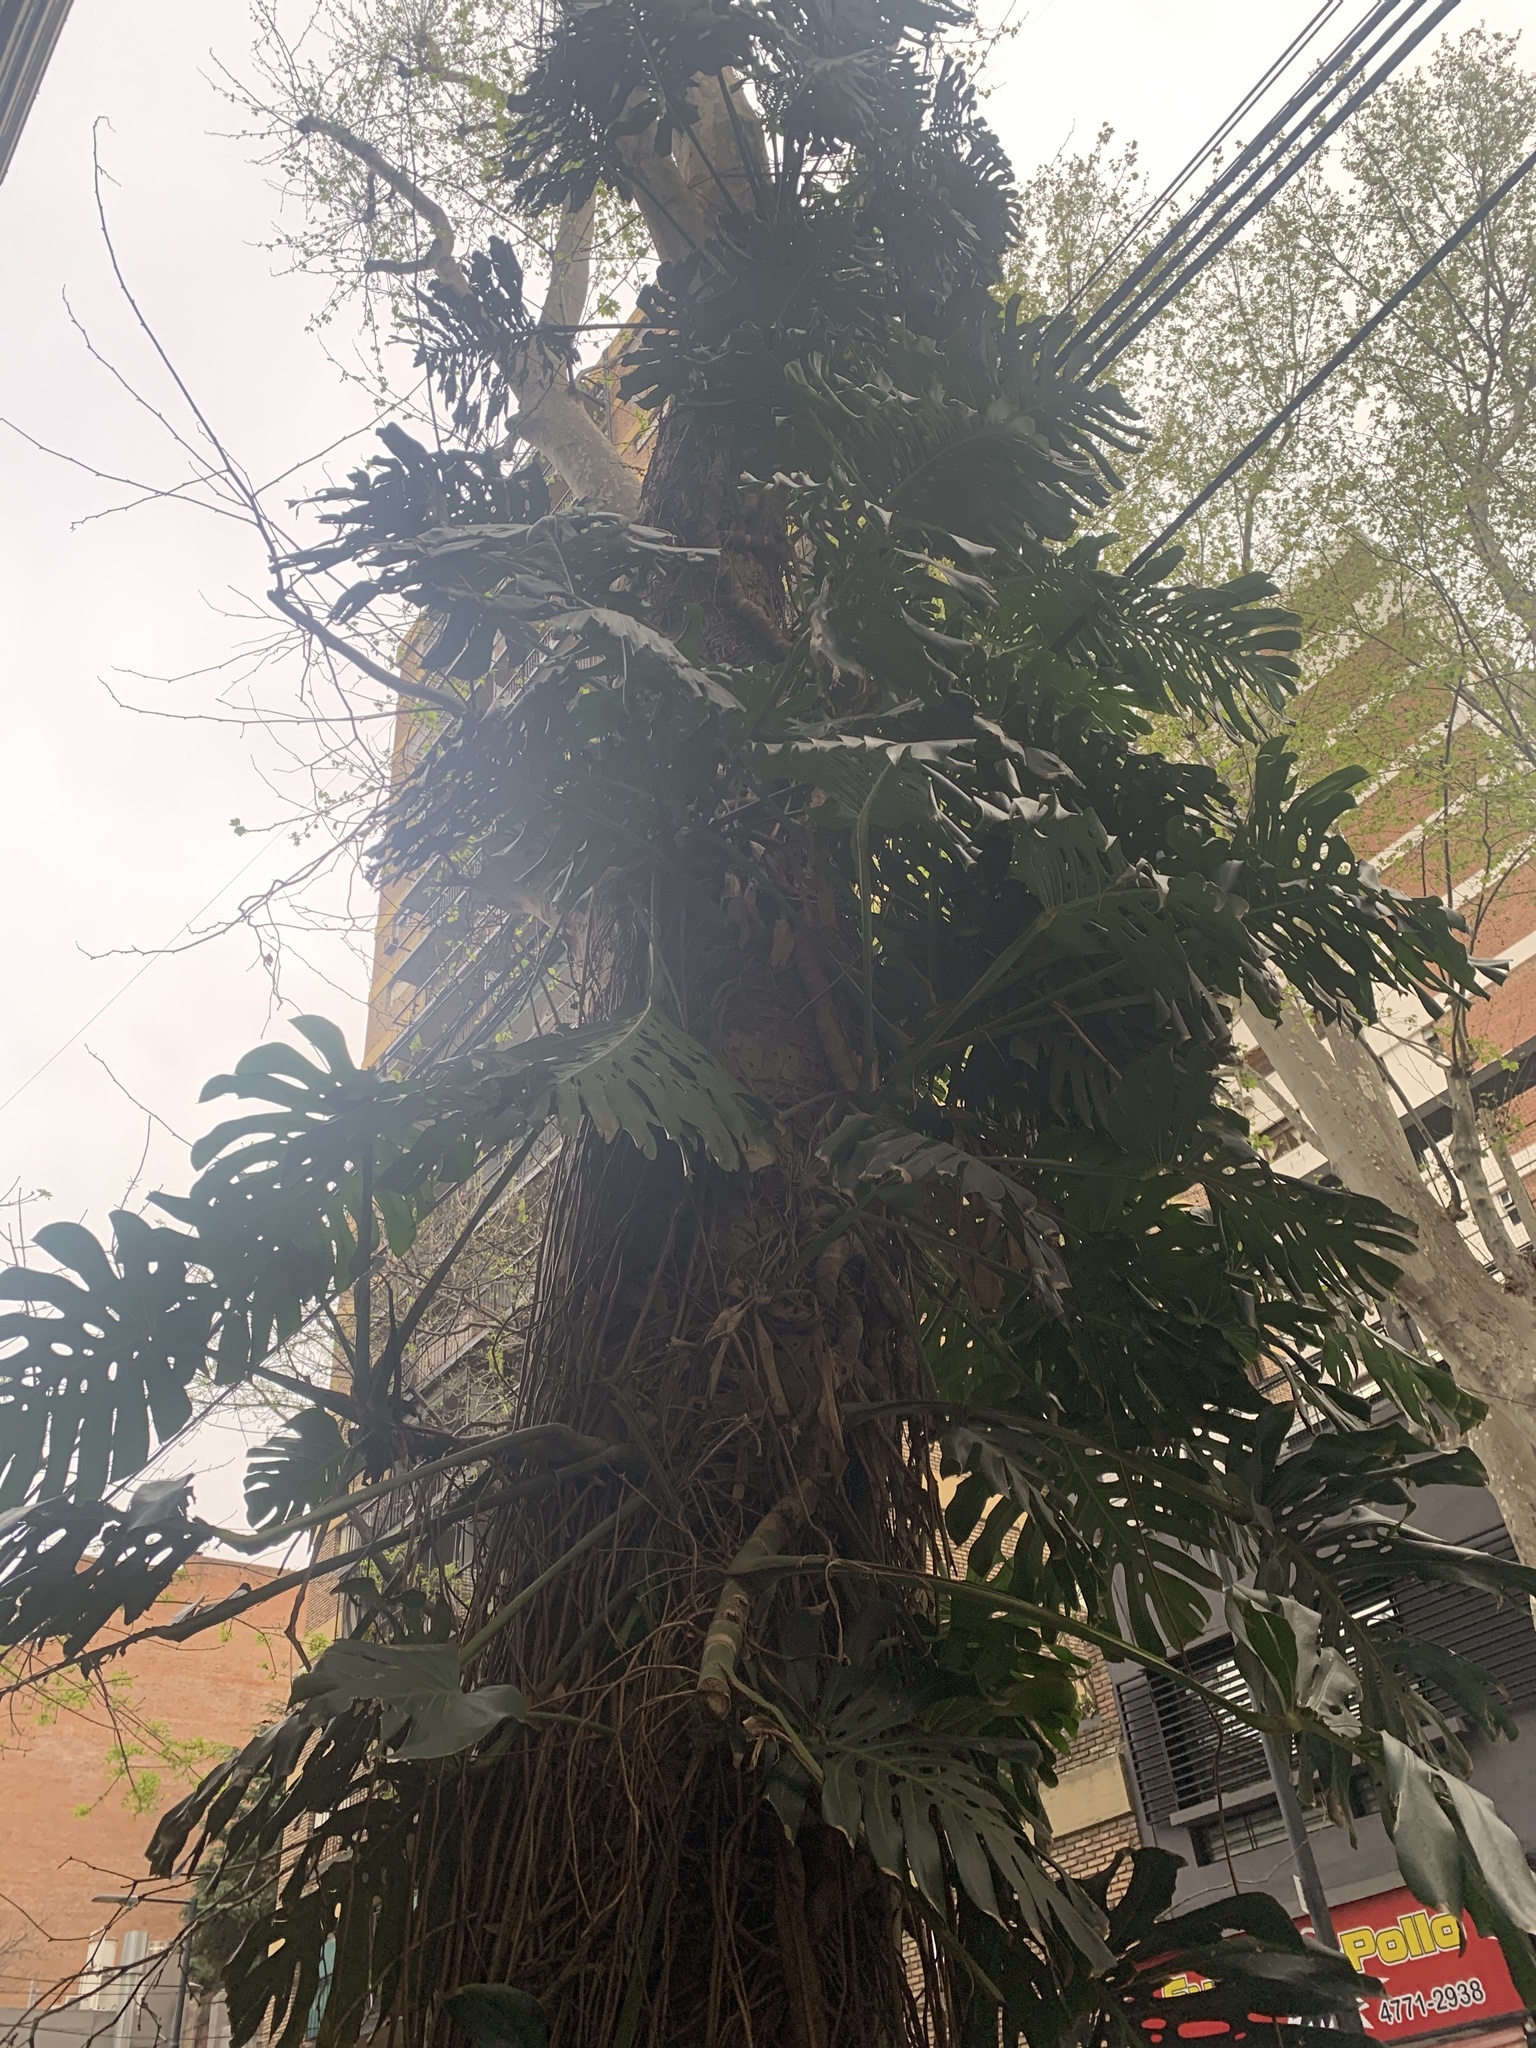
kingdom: Plantae
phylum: Tracheophyta
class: Liliopsida
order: Alismatales
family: Araceae
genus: Monstera
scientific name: Monstera deliciosa
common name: Cut-leaf-philodendron
